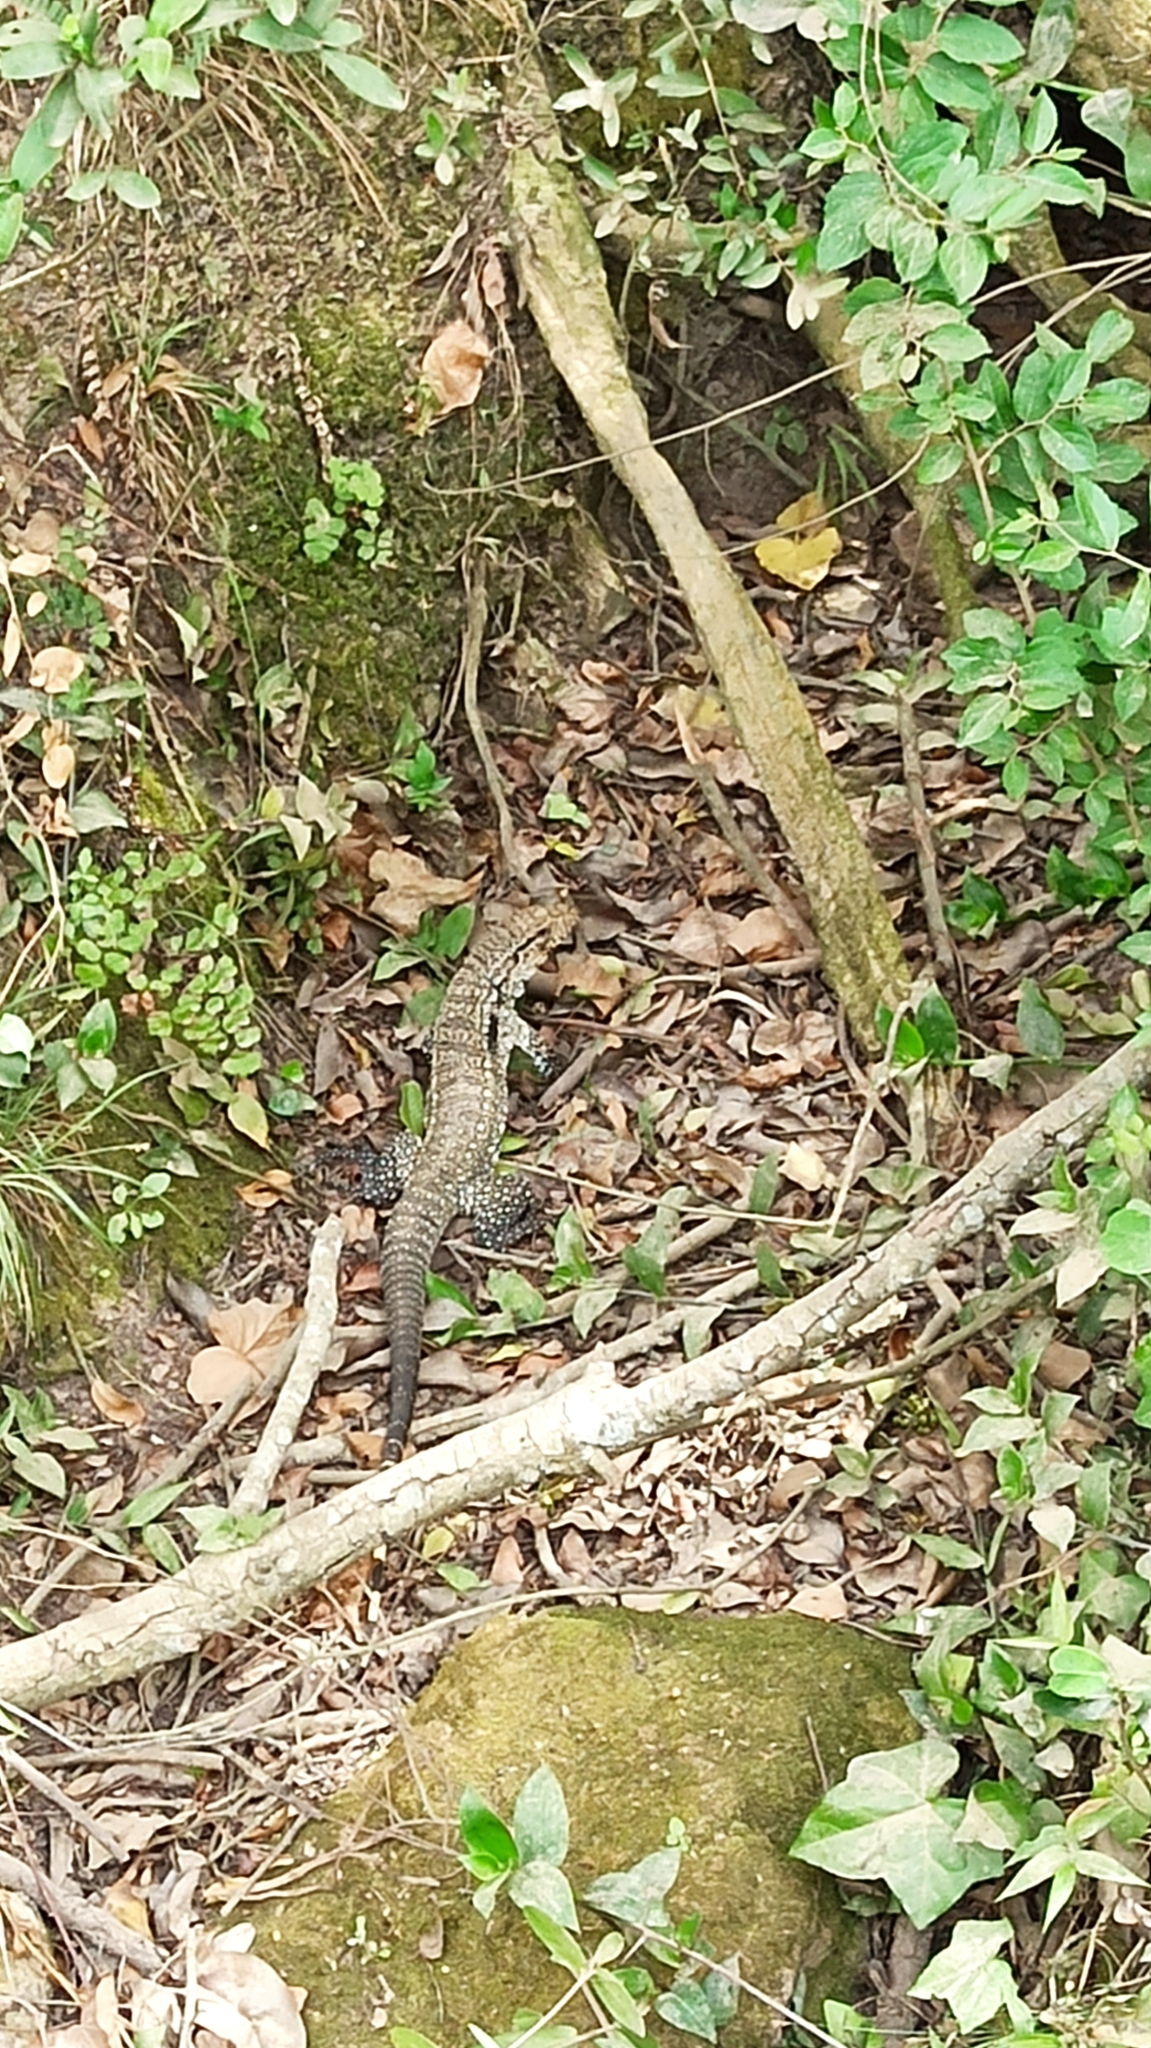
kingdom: Animalia
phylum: Chordata
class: Squamata
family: Teiidae
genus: Salvator
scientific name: Salvator merianae
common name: Argentine black and white tegu
